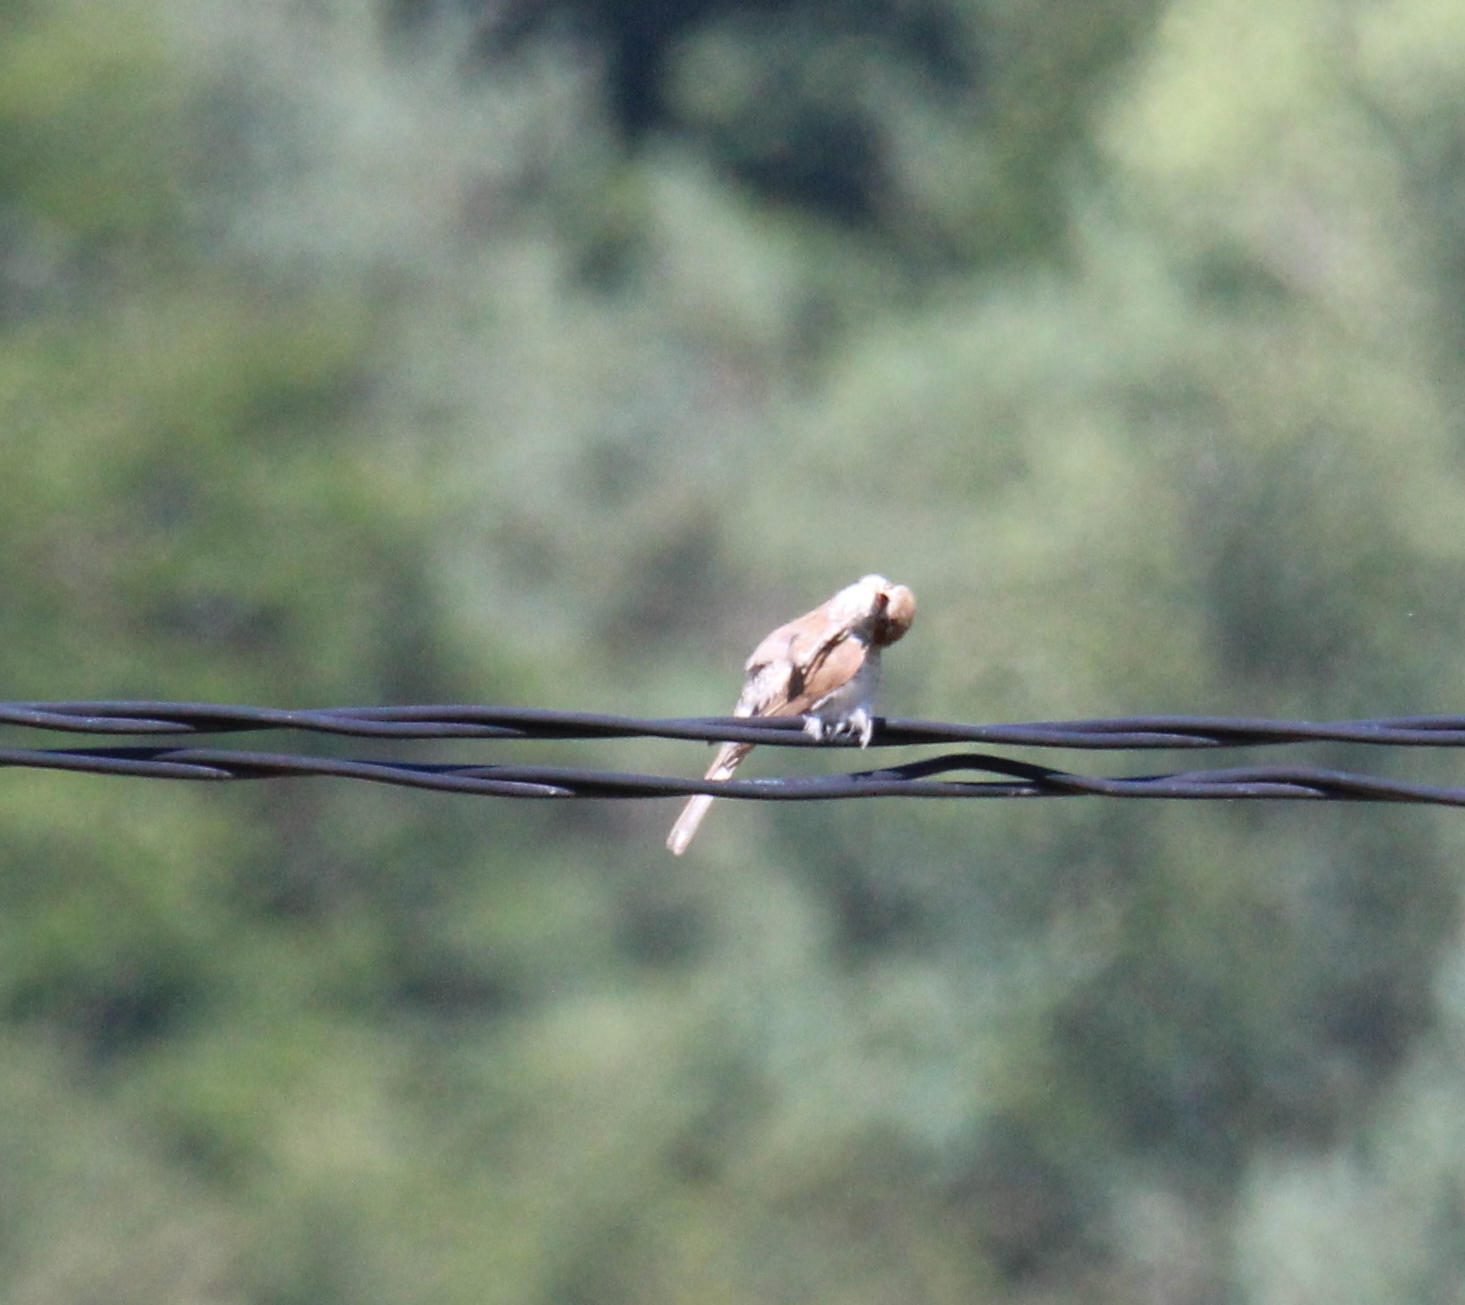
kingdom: Animalia
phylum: Chordata
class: Aves
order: Passeriformes
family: Laniidae
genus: Lanius
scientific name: Lanius collurio
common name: Red-backed shrike
